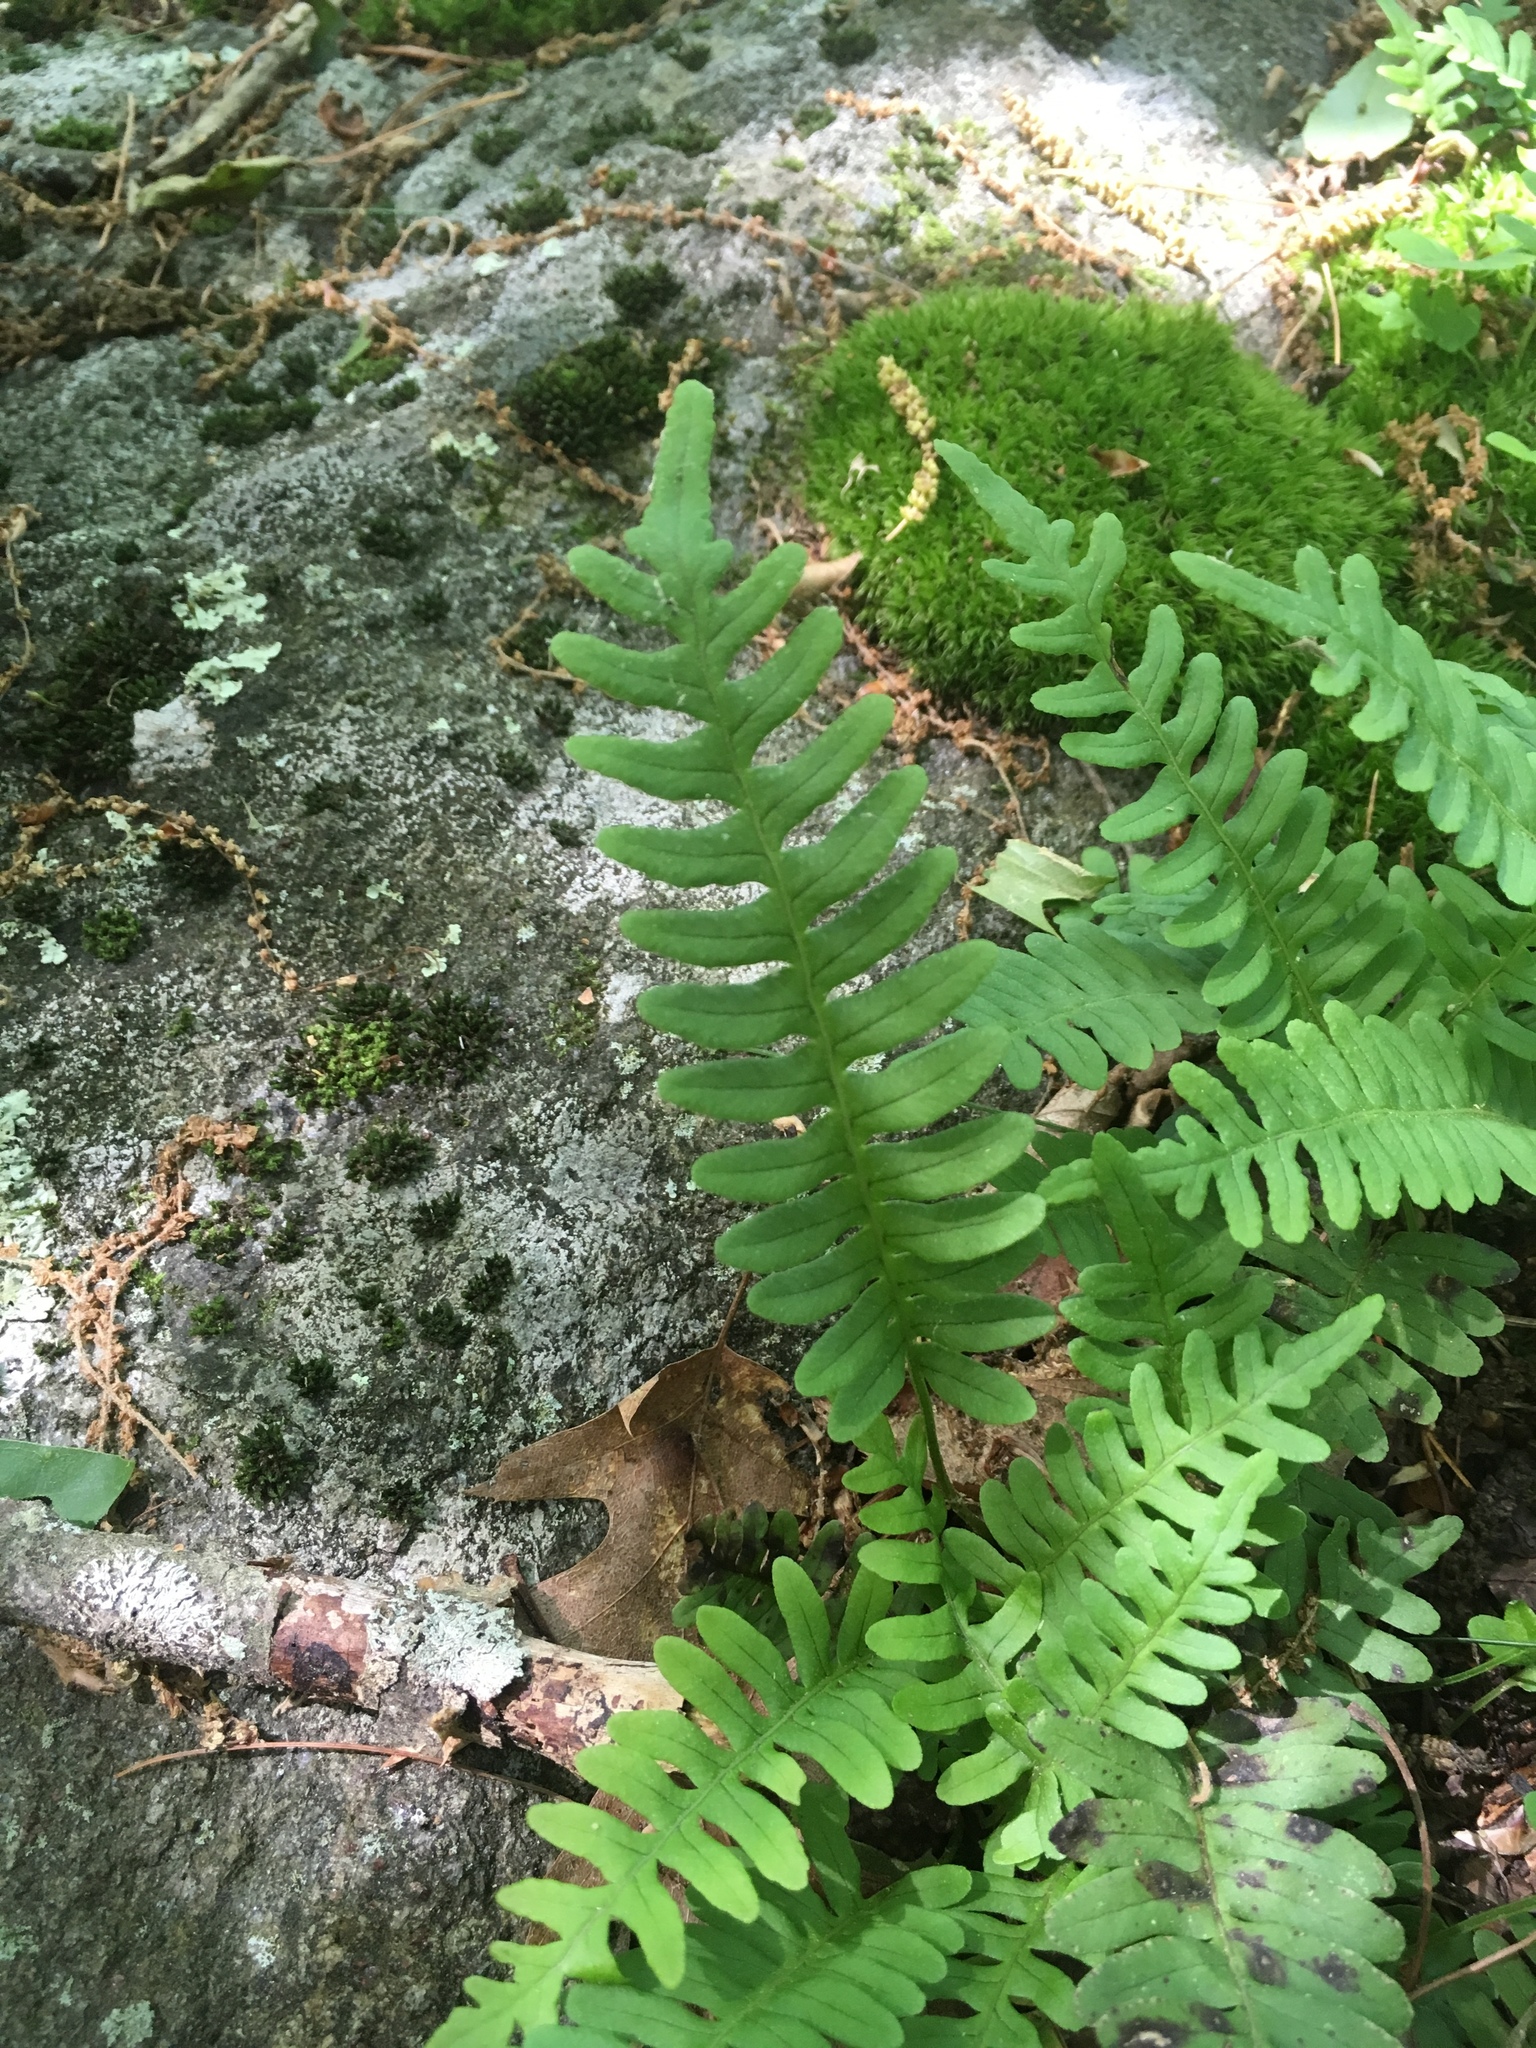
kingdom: Plantae
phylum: Tracheophyta
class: Polypodiopsida
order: Polypodiales
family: Polypodiaceae
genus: Polypodium
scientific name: Polypodium virginianum
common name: American wall fern
